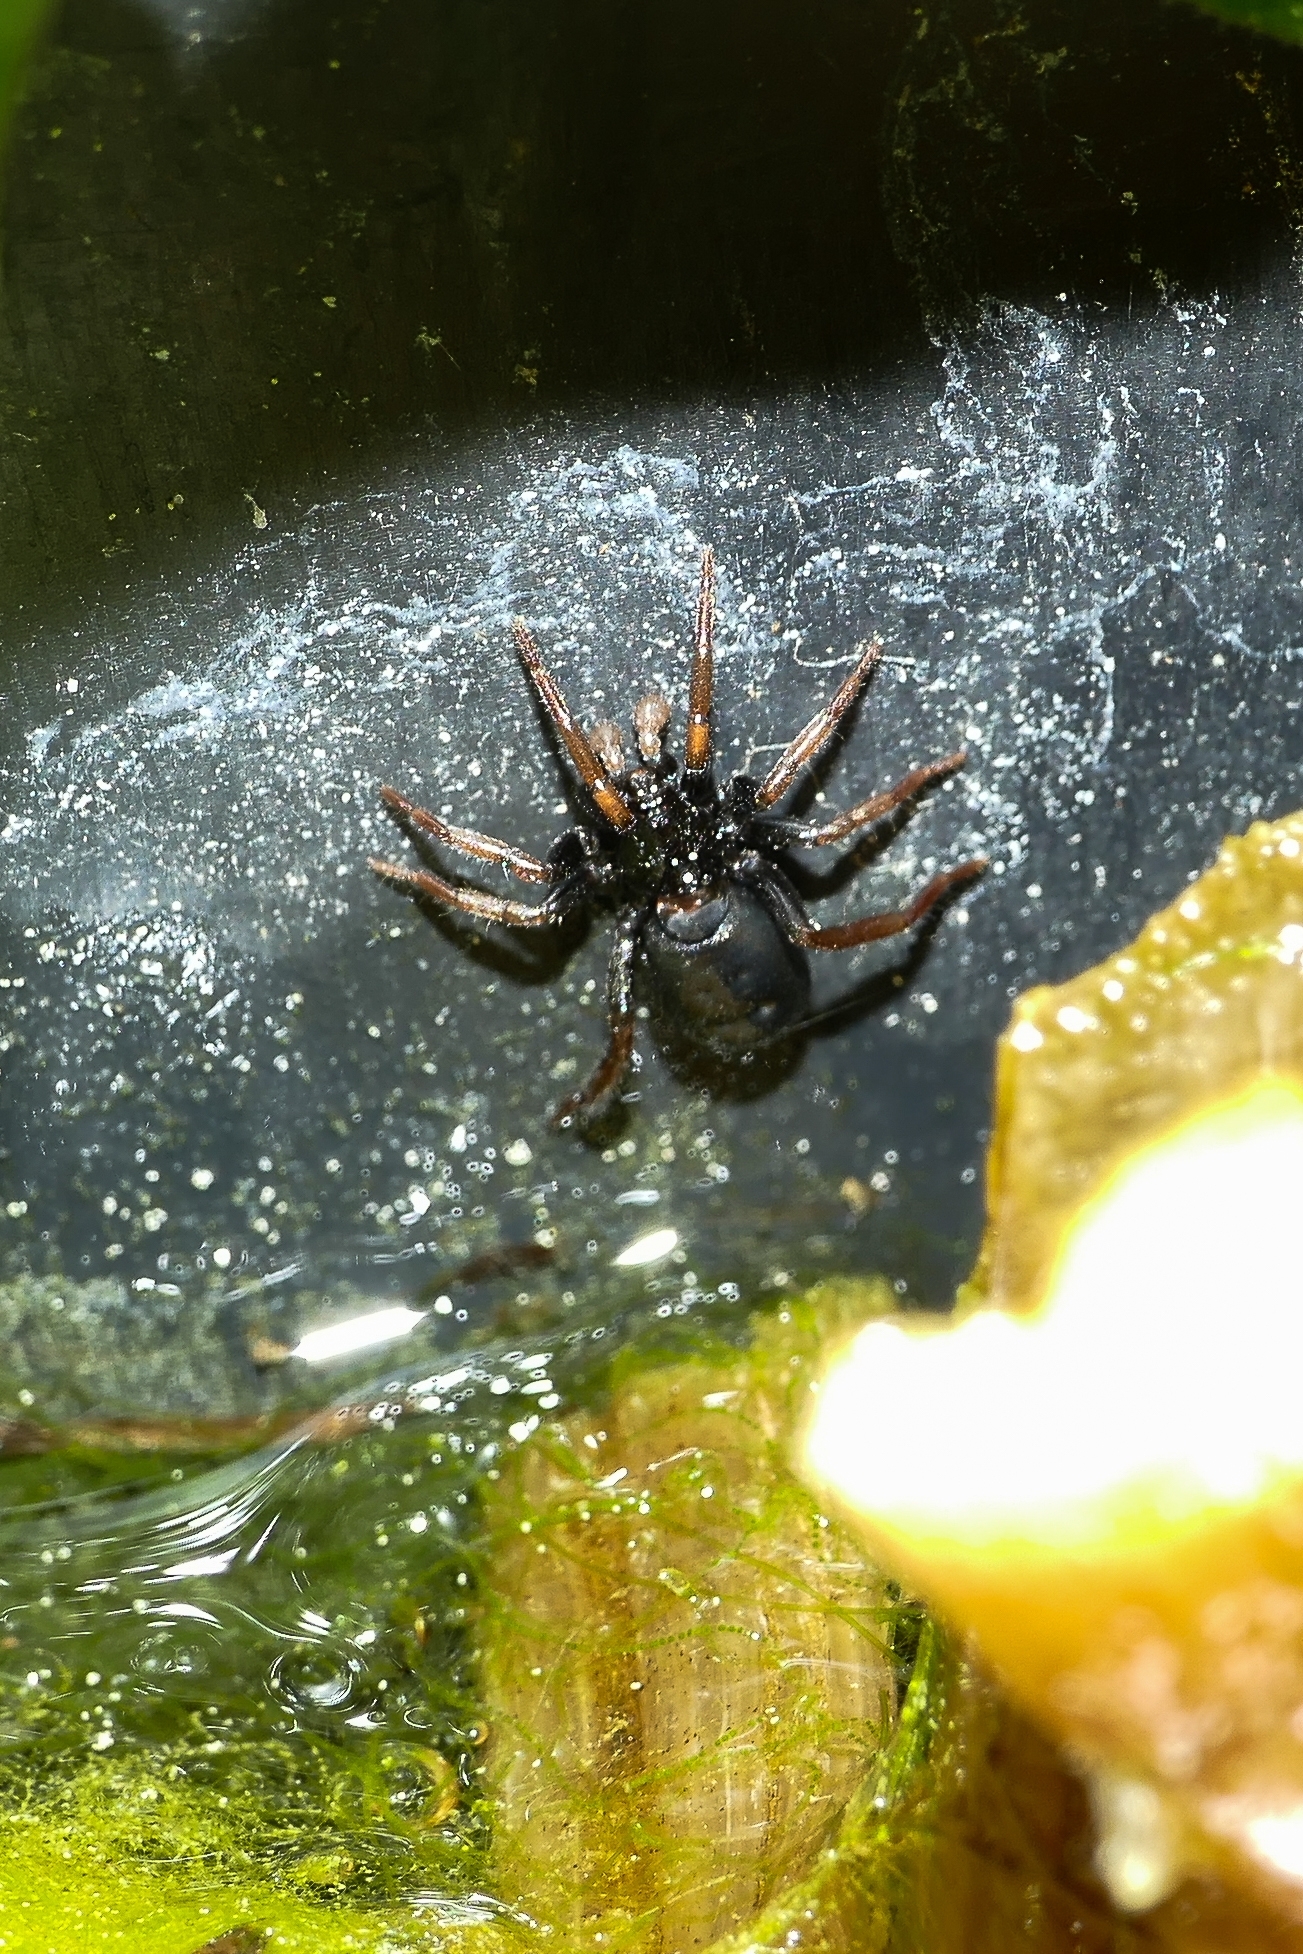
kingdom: Animalia
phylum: Arthropoda
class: Arachnida
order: Araneae
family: Gnaphosidae
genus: Trachyzelotes
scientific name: Trachyzelotes pedestris
